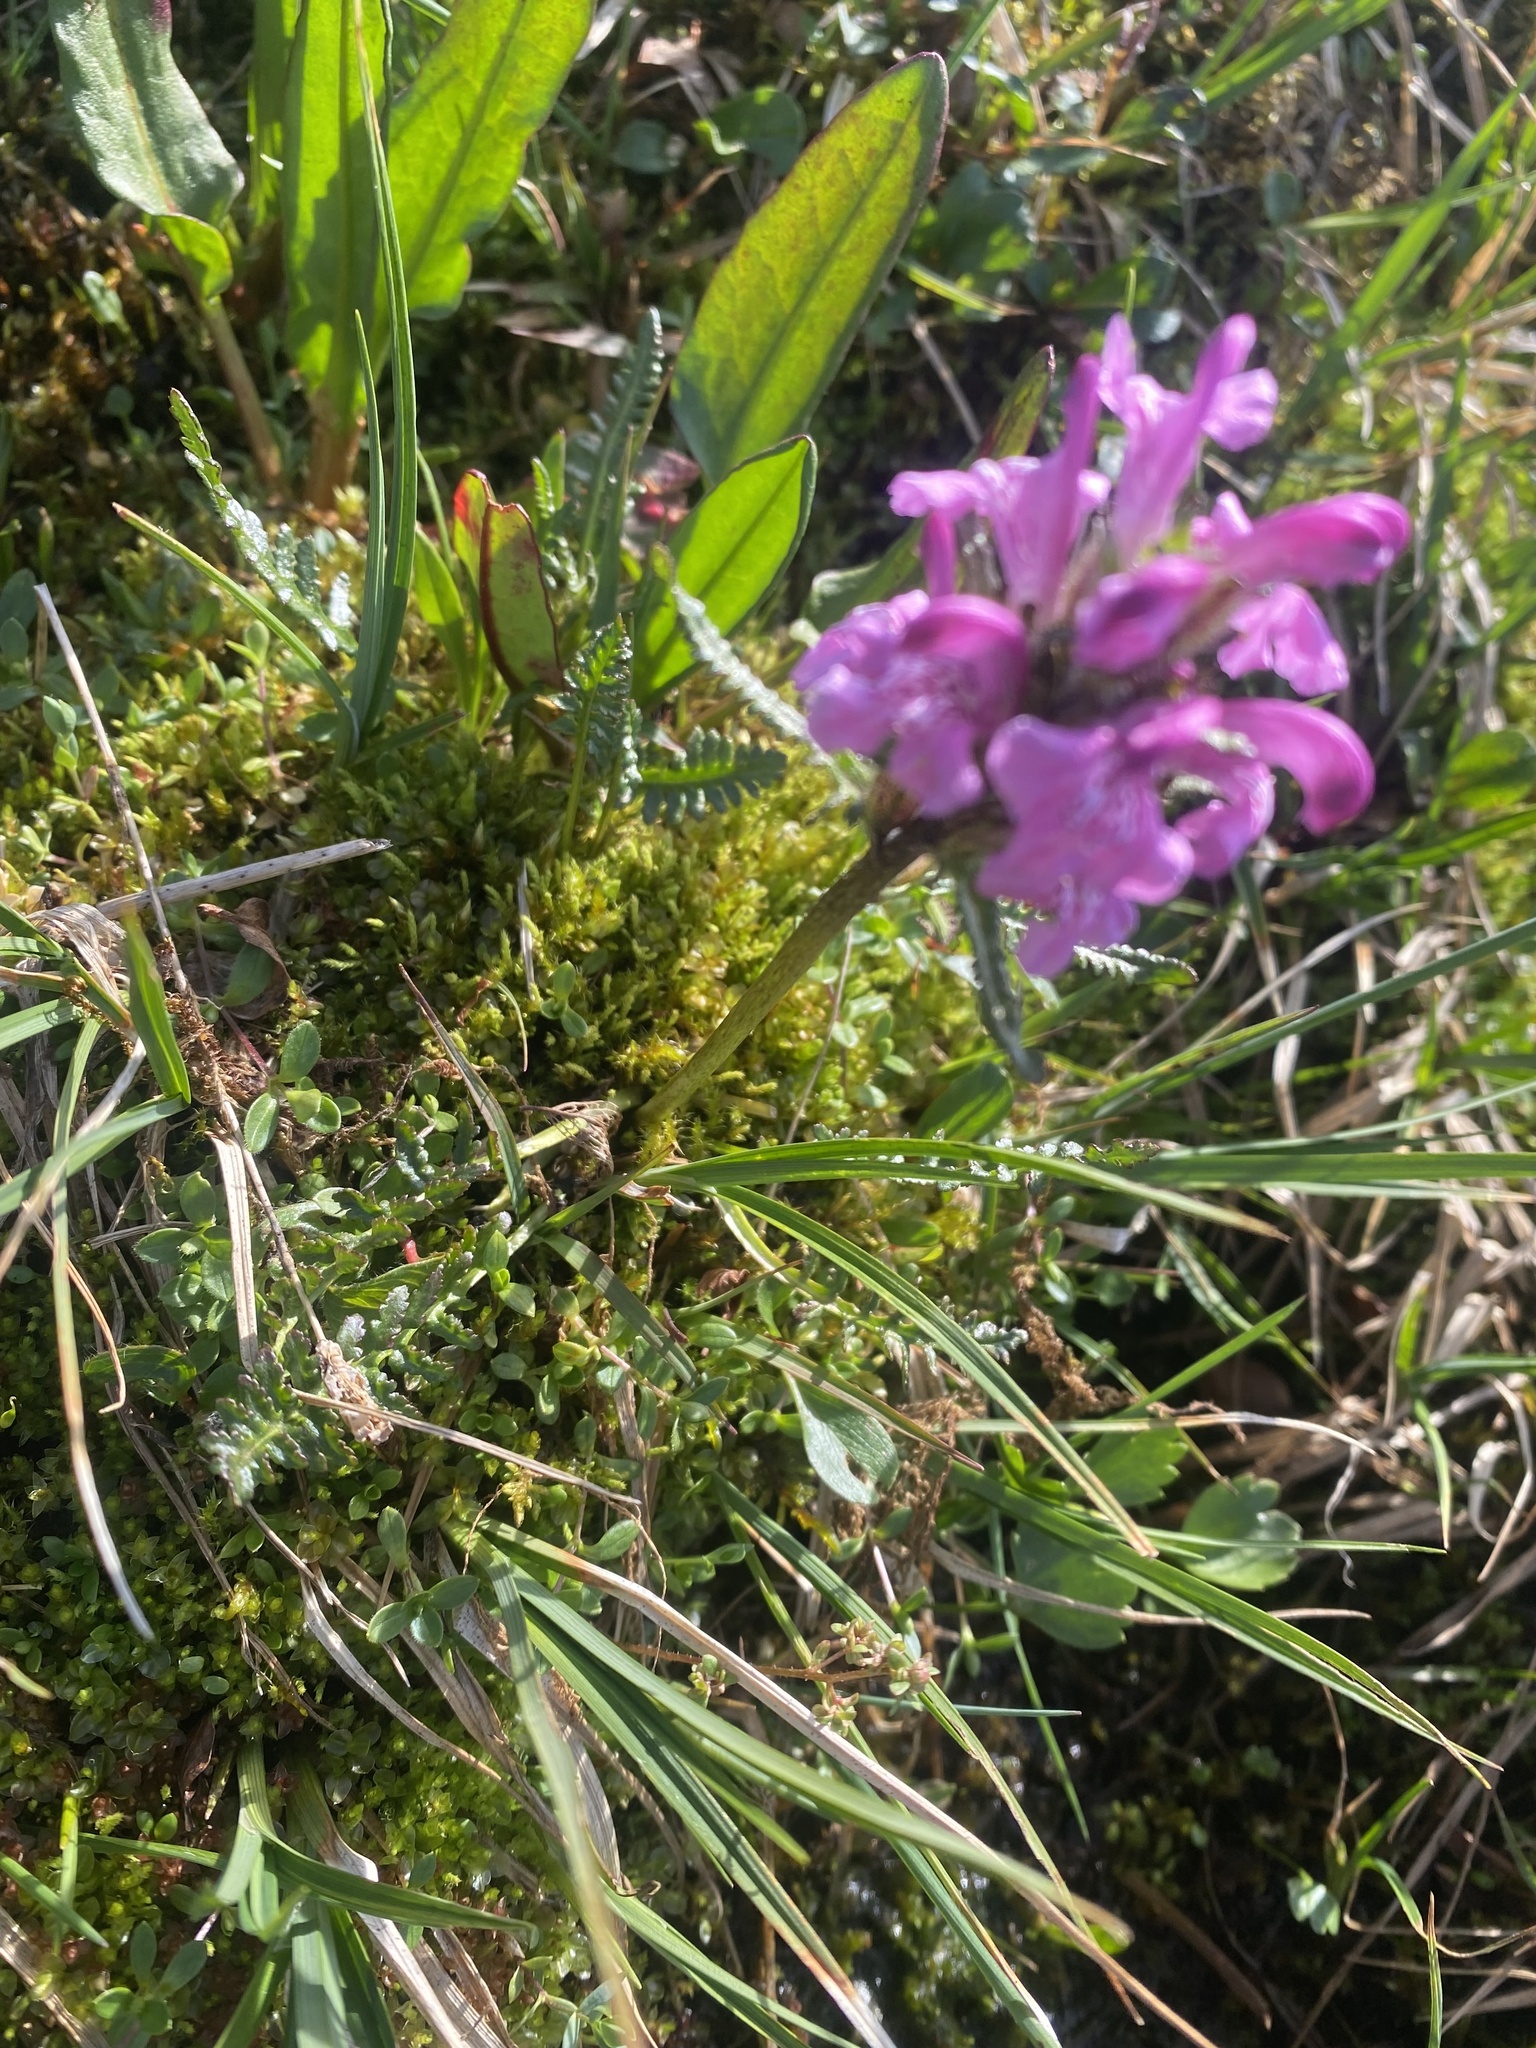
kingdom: Plantae
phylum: Tracheophyta
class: Magnoliopsida
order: Lamiales
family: Orobanchaceae
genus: Pedicularis
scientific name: Pedicularis interior
